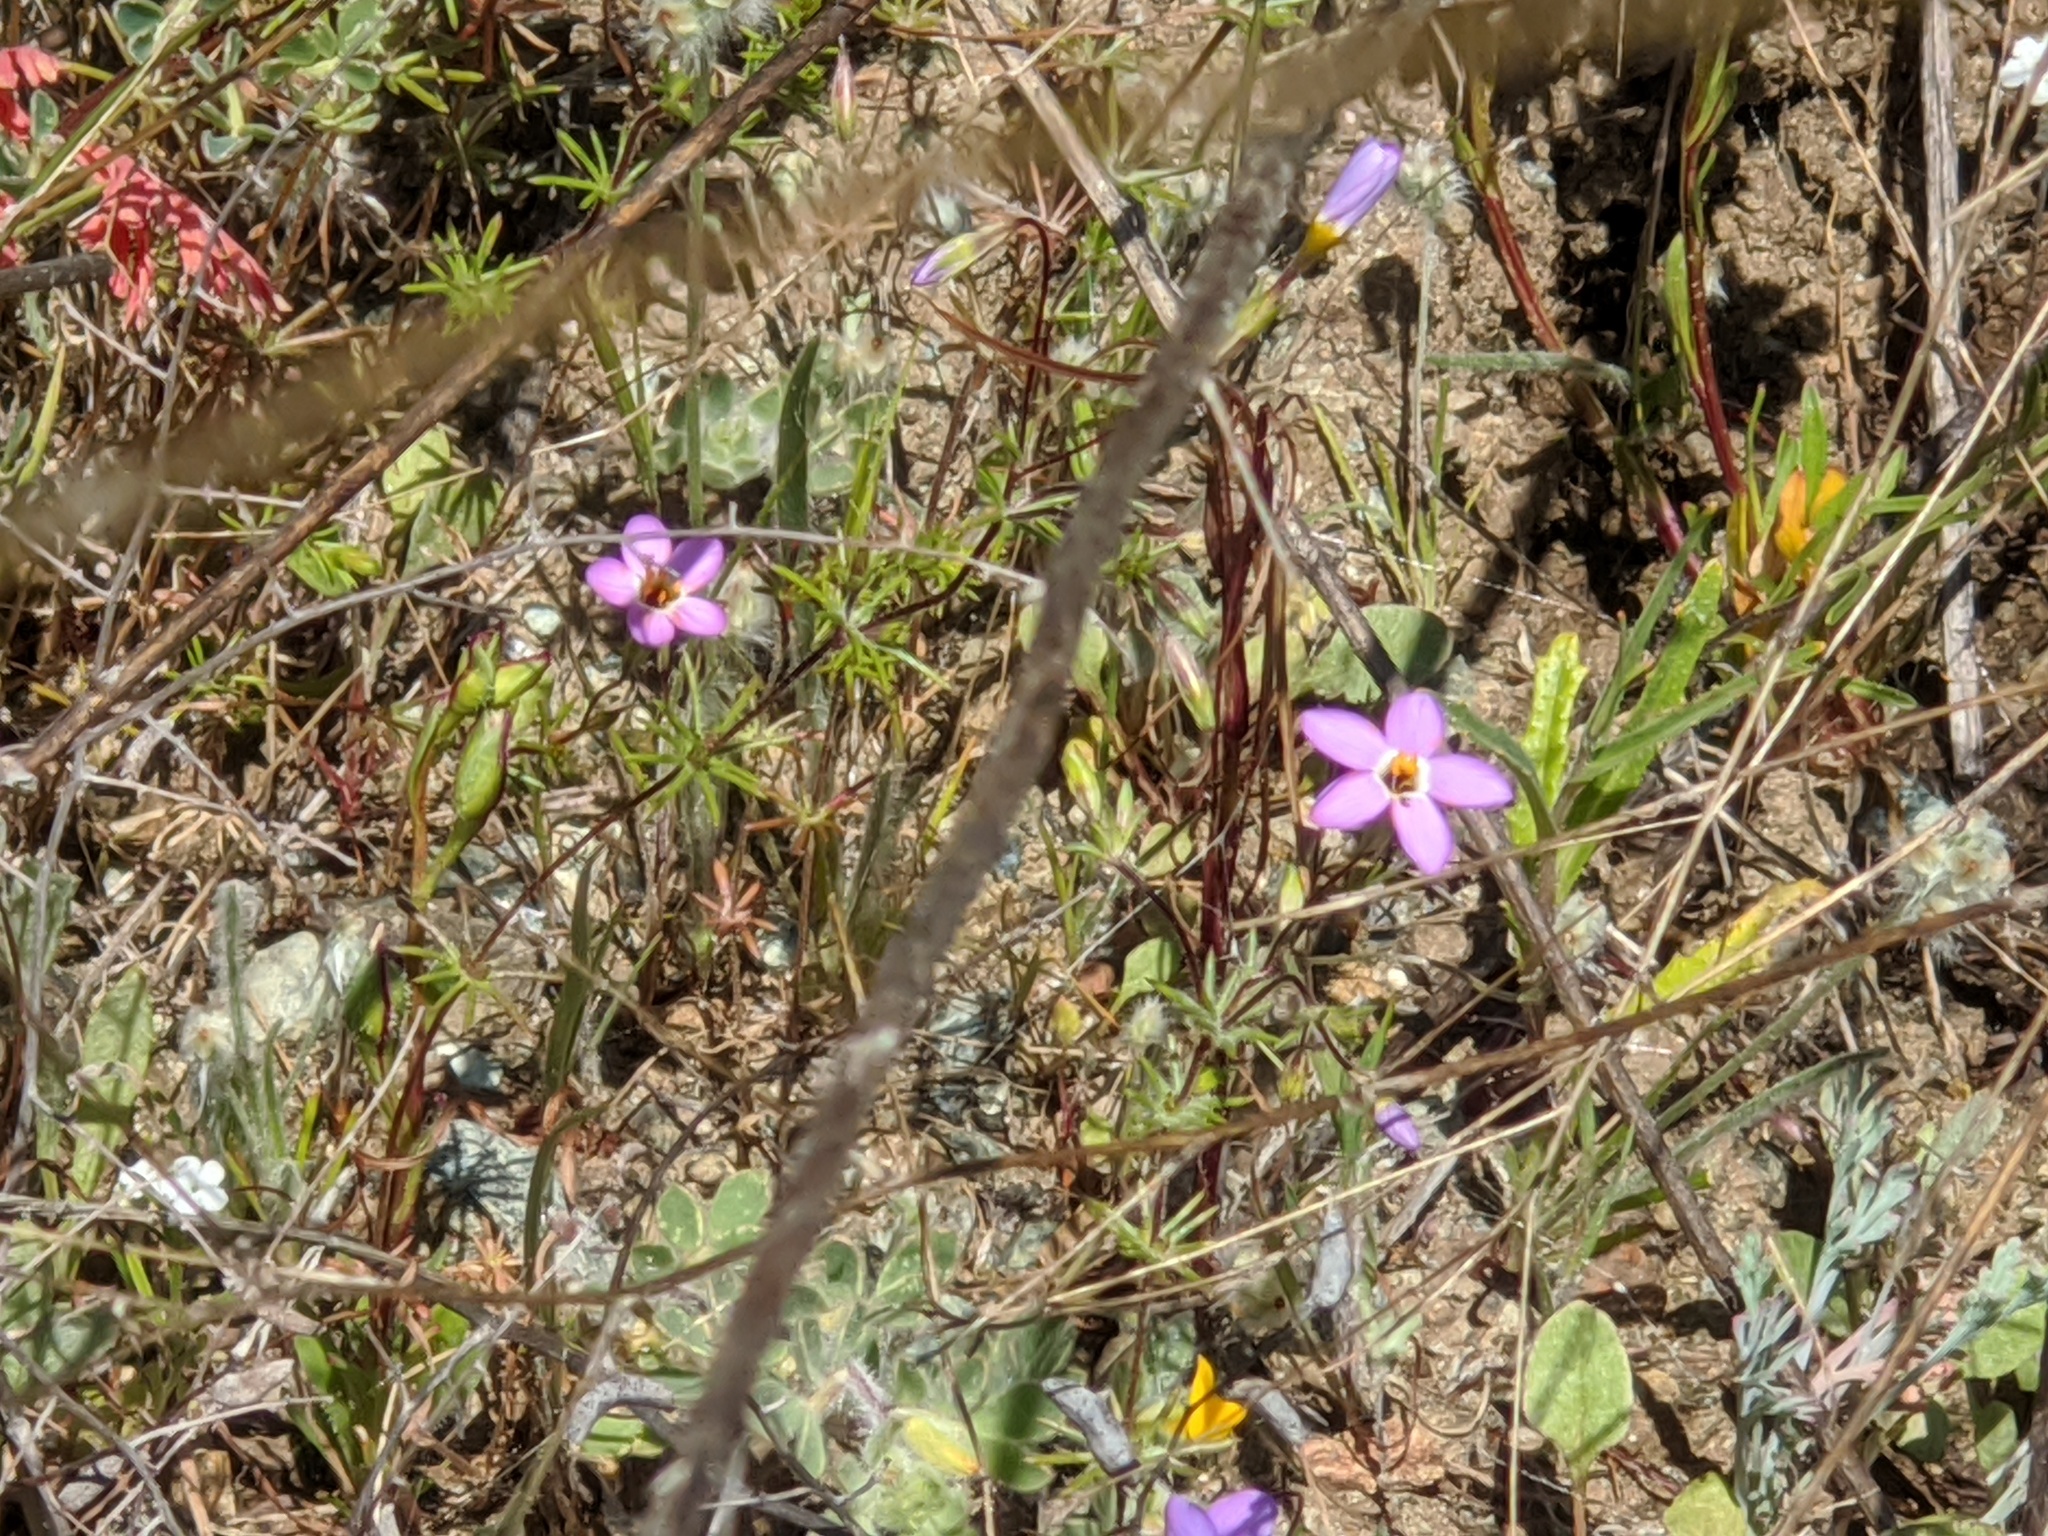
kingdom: Plantae
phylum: Tracheophyta
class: Magnoliopsida
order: Ericales
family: Polemoniaceae
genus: Leptosiphon
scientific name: Leptosiphon ambiguus
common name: Serpentine linanthus
